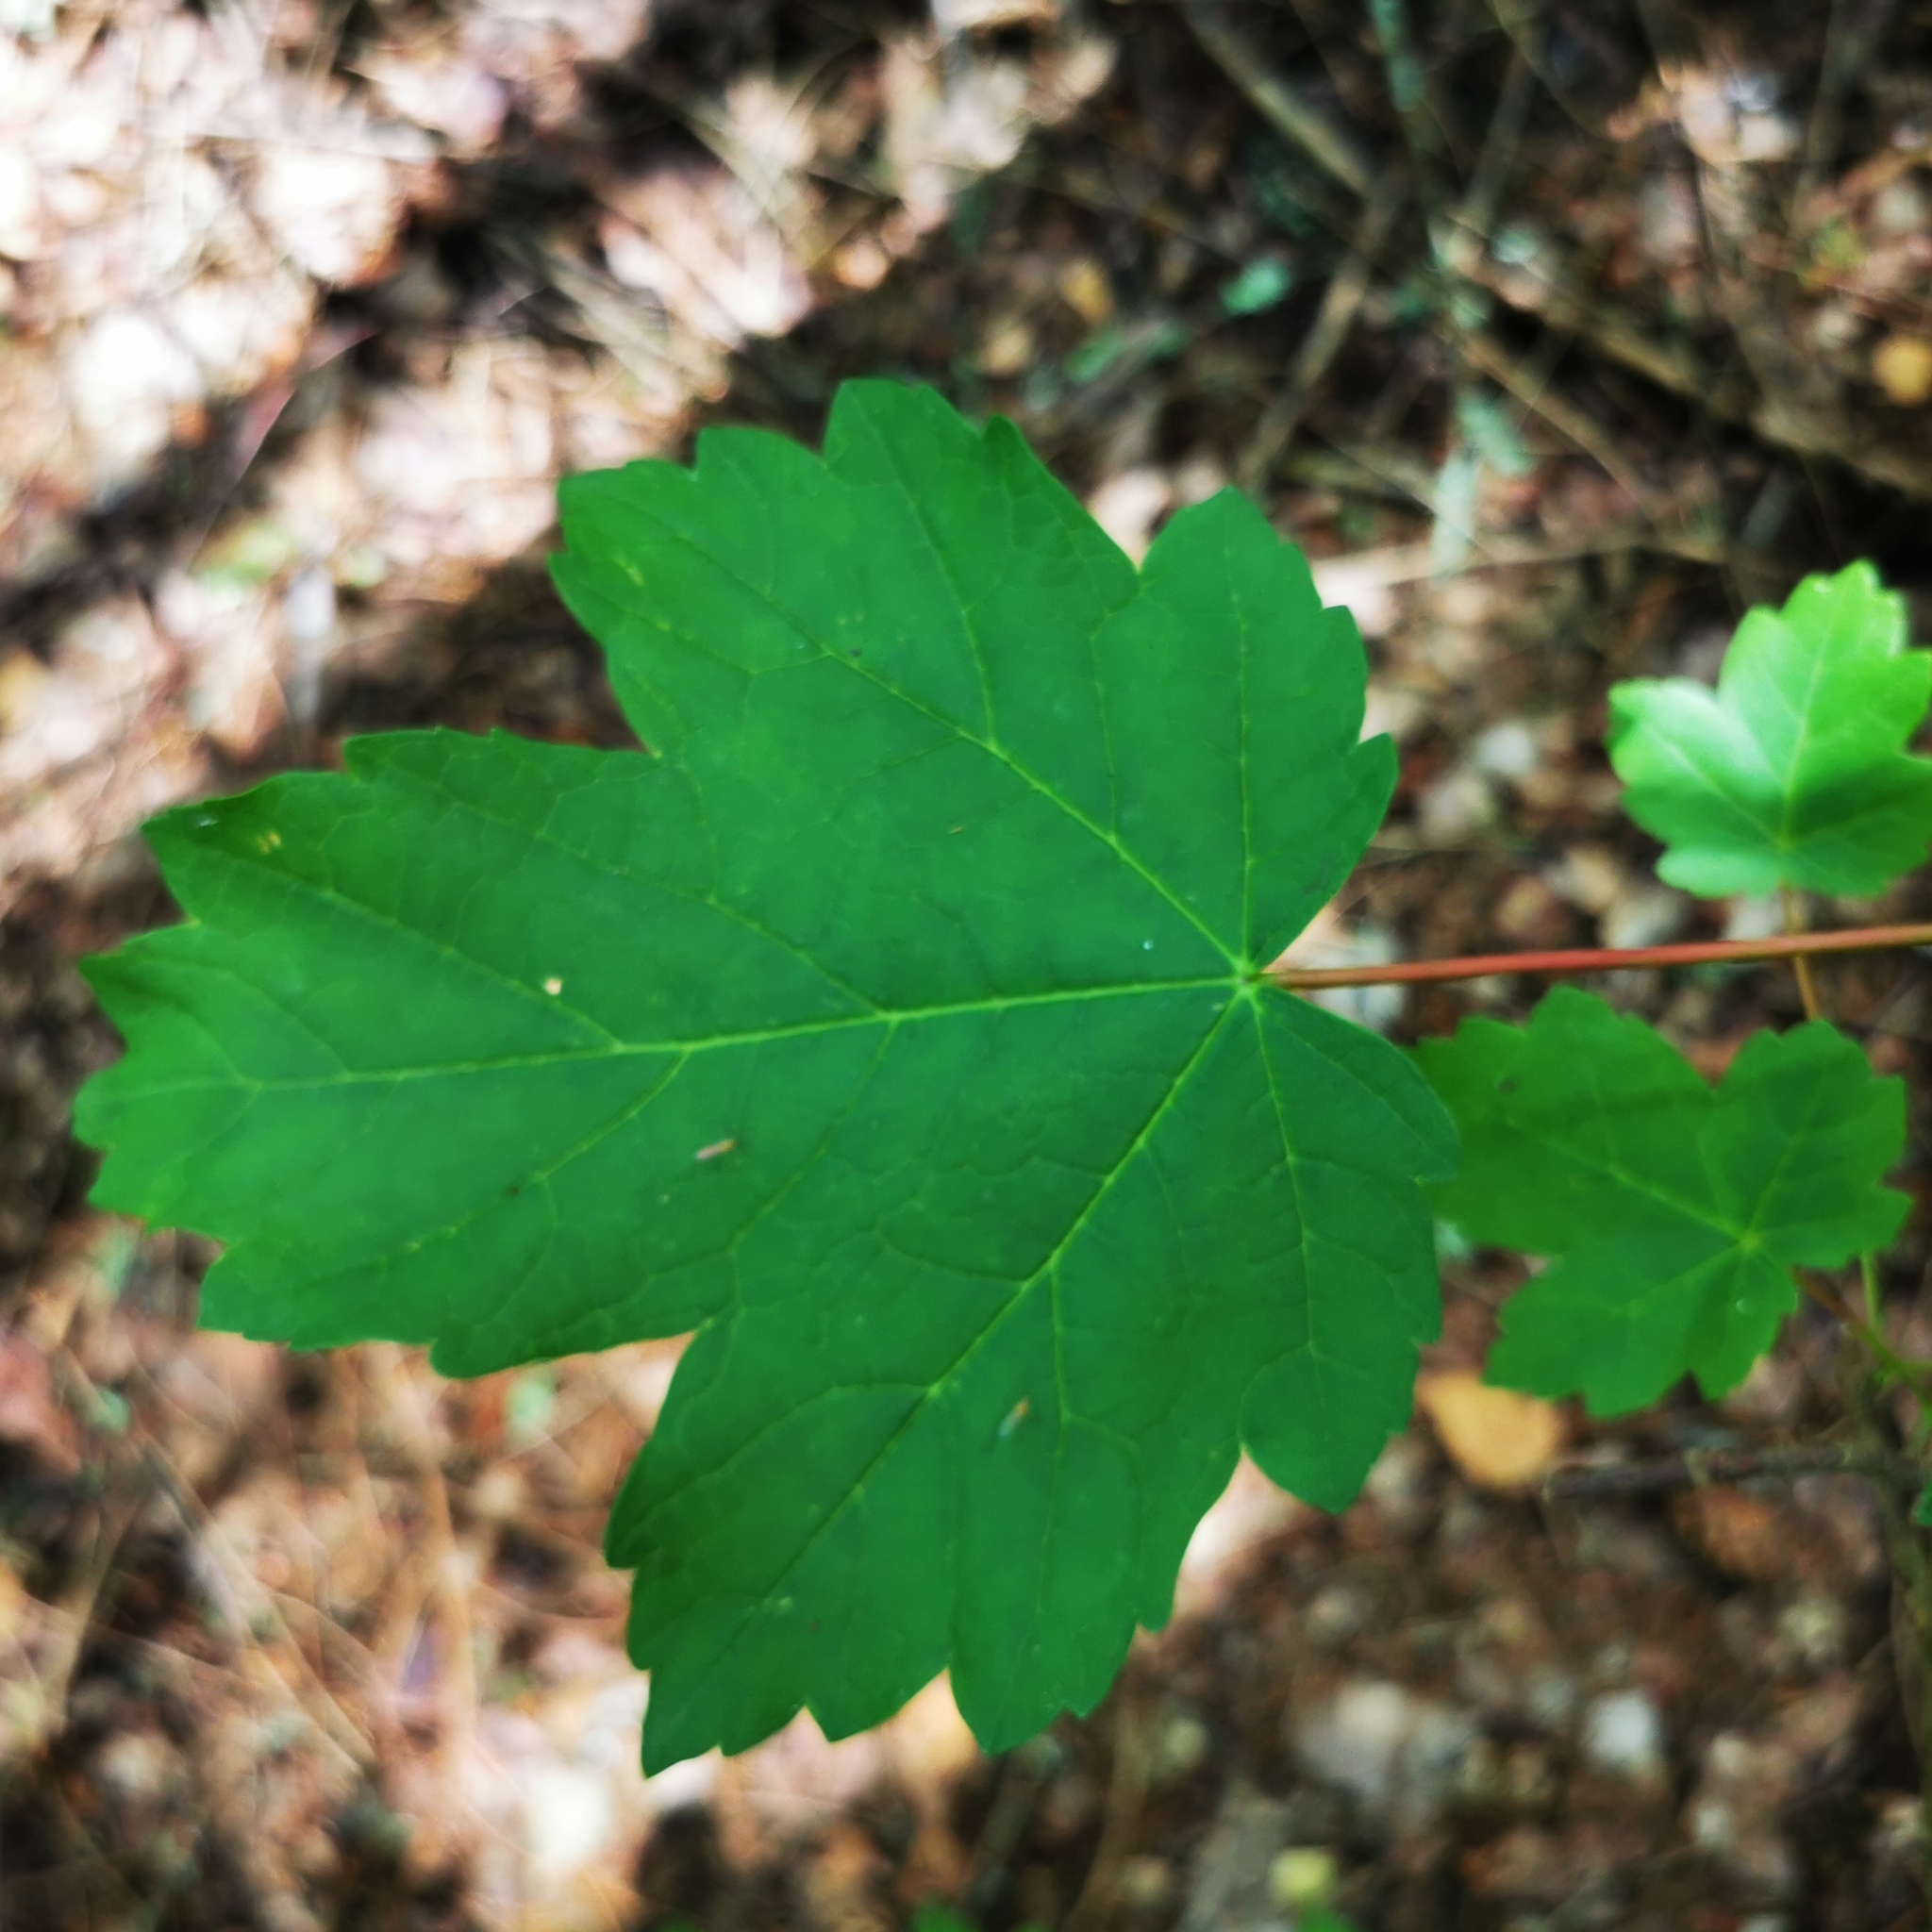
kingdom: Plantae
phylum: Tracheophyta
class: Magnoliopsida
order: Sapindales
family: Sapindaceae
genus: Acer
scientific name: Acer pseudoplatanus
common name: Sycamore
